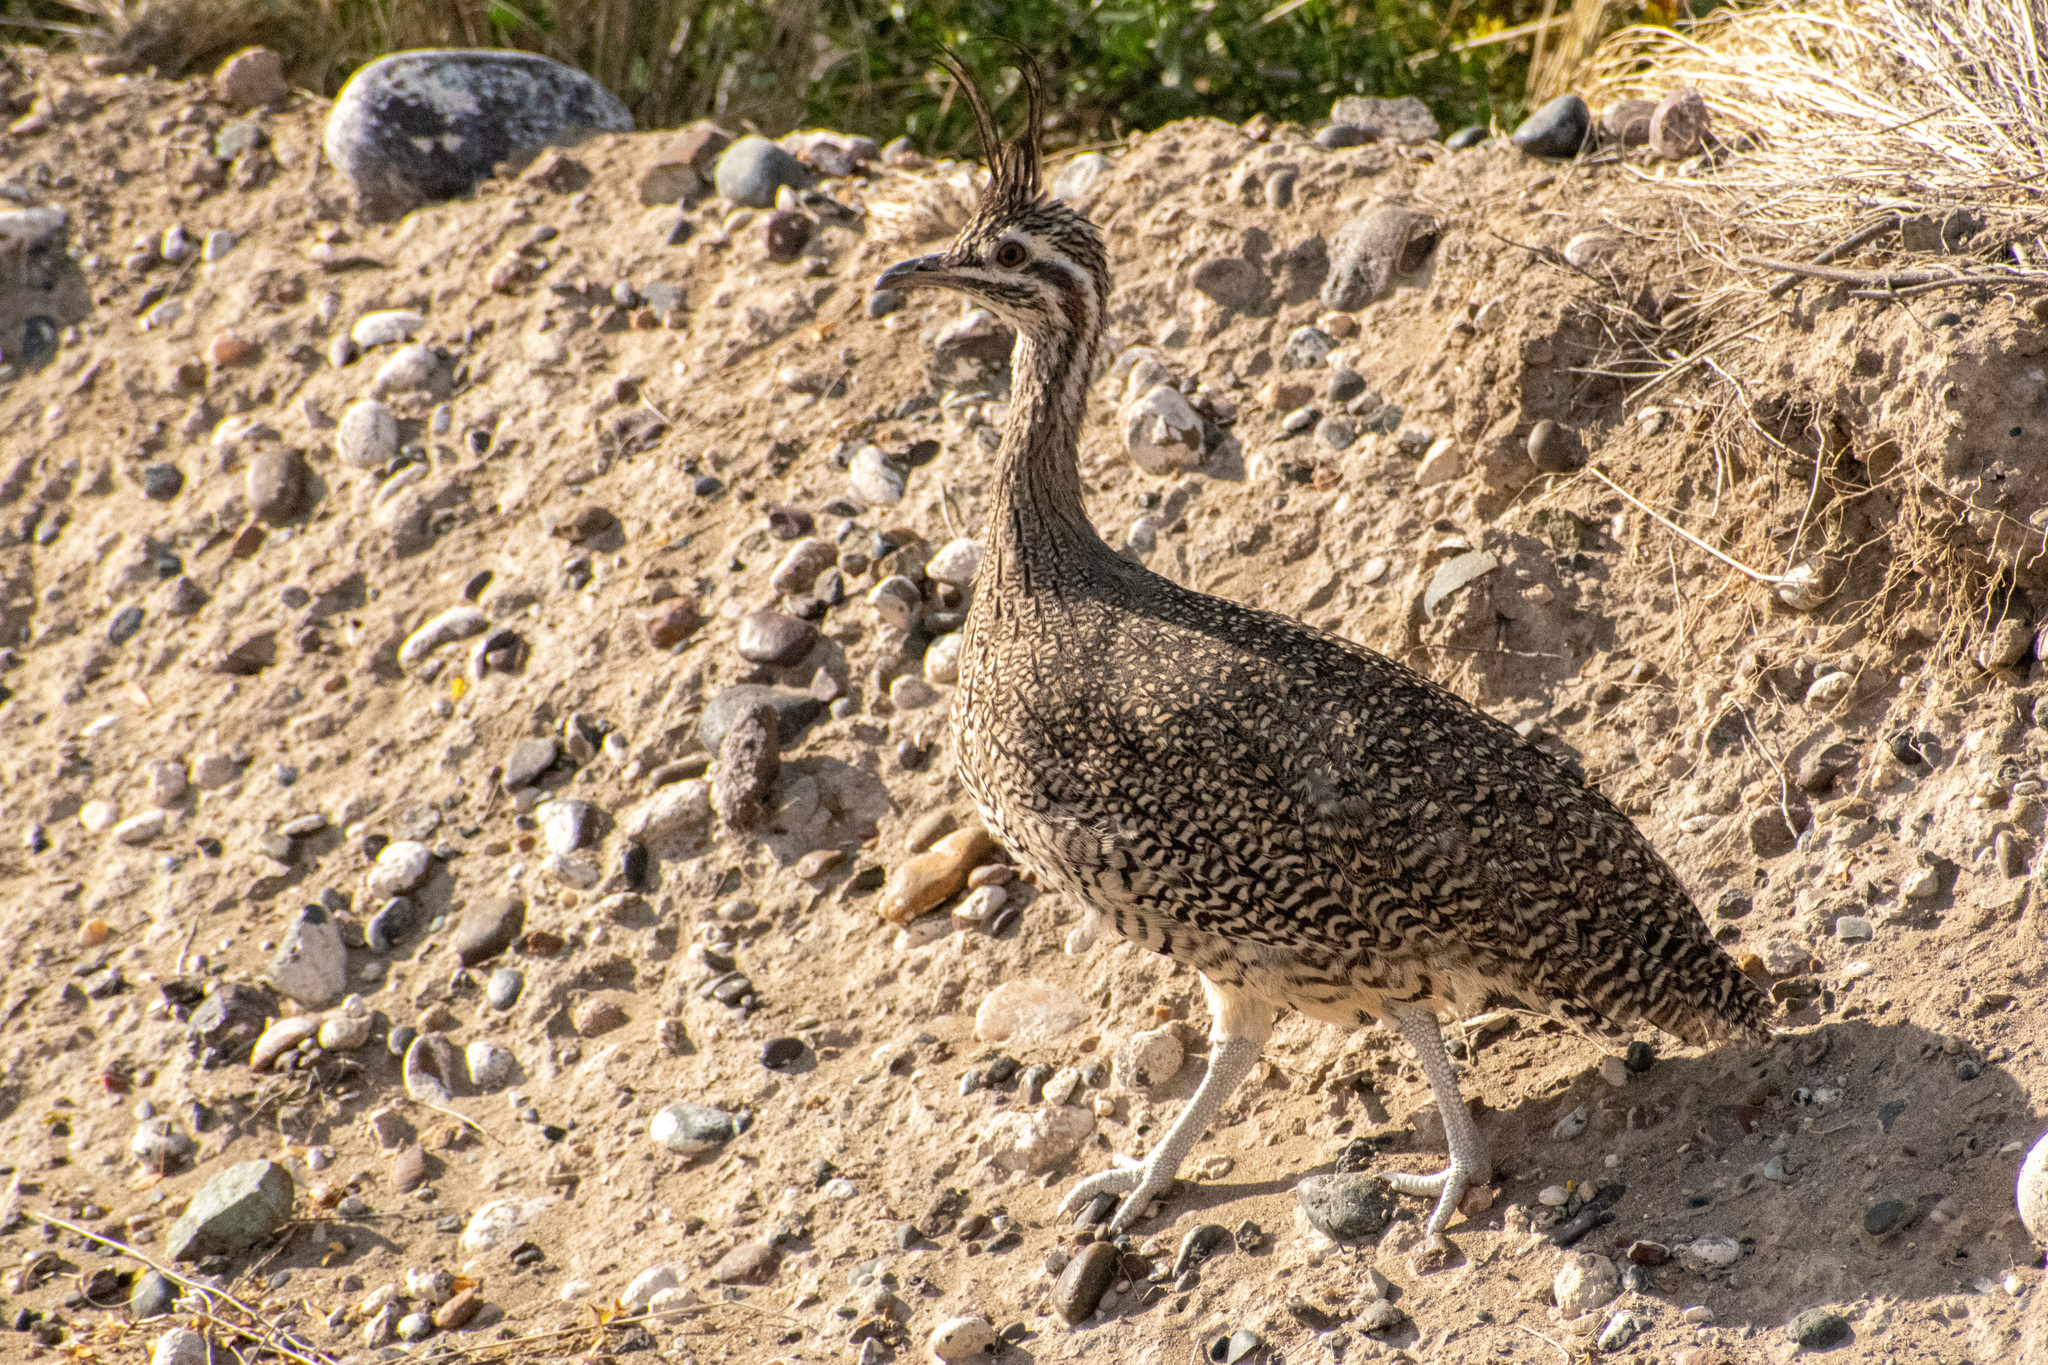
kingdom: Animalia
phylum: Chordata
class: Aves
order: Tinamiformes
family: Tinamidae
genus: Eudromia
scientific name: Eudromia elegans
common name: Elegant crested tinamou
